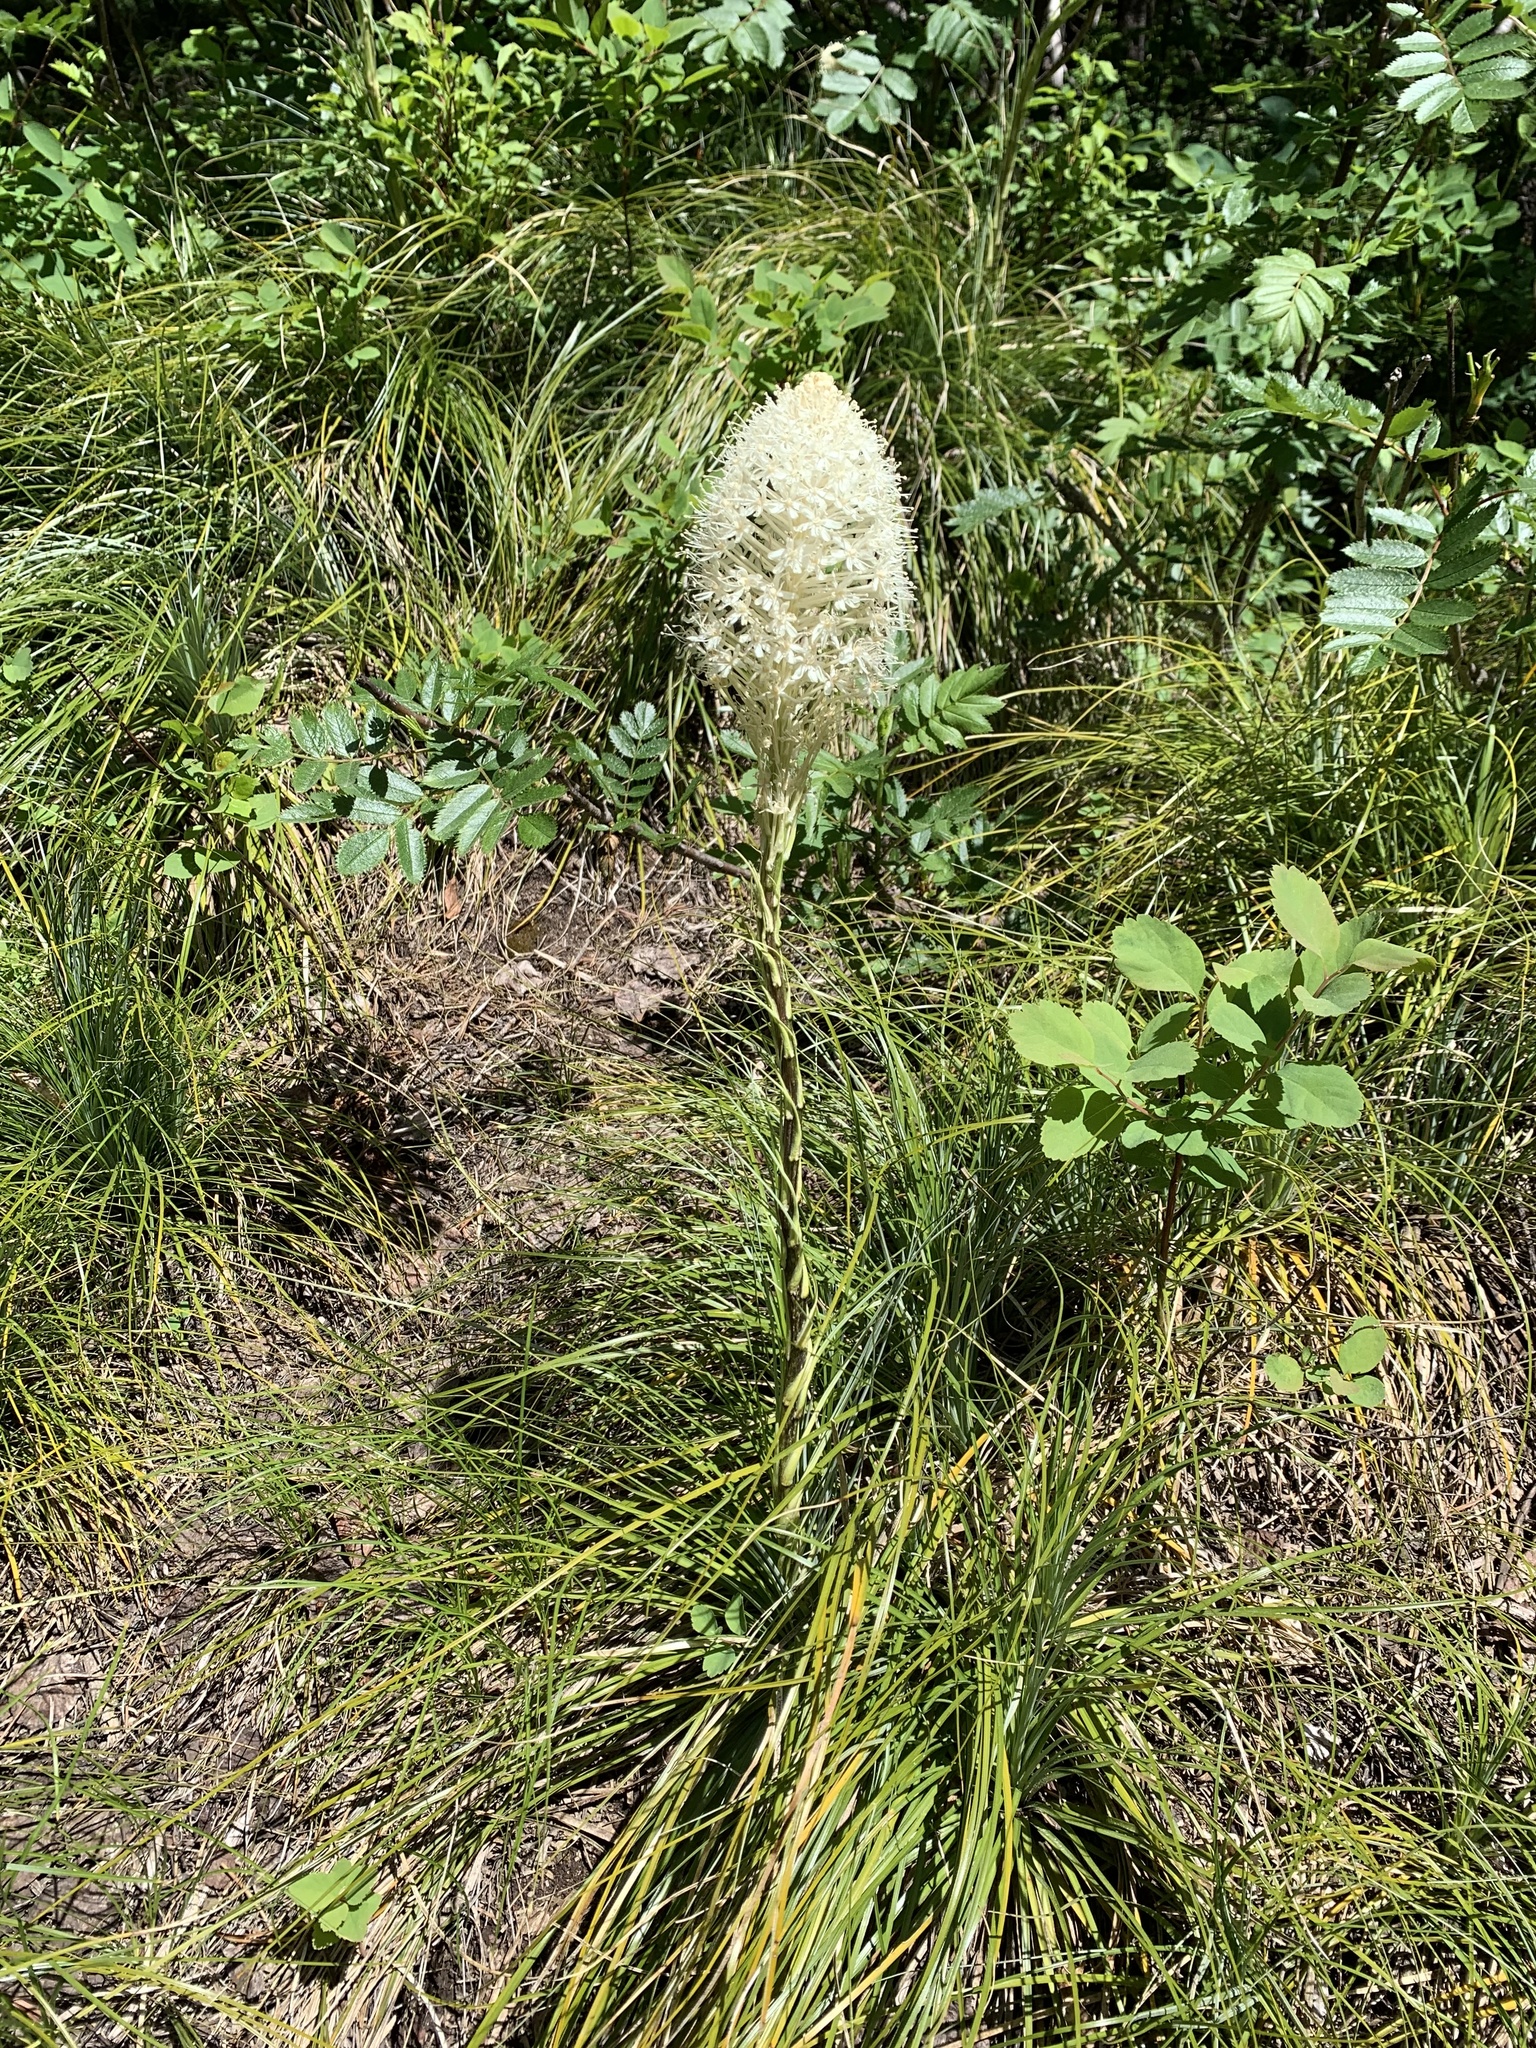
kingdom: Plantae
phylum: Tracheophyta
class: Liliopsida
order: Liliales
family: Melanthiaceae
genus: Xerophyllum
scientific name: Xerophyllum tenax
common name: Bear-grass
